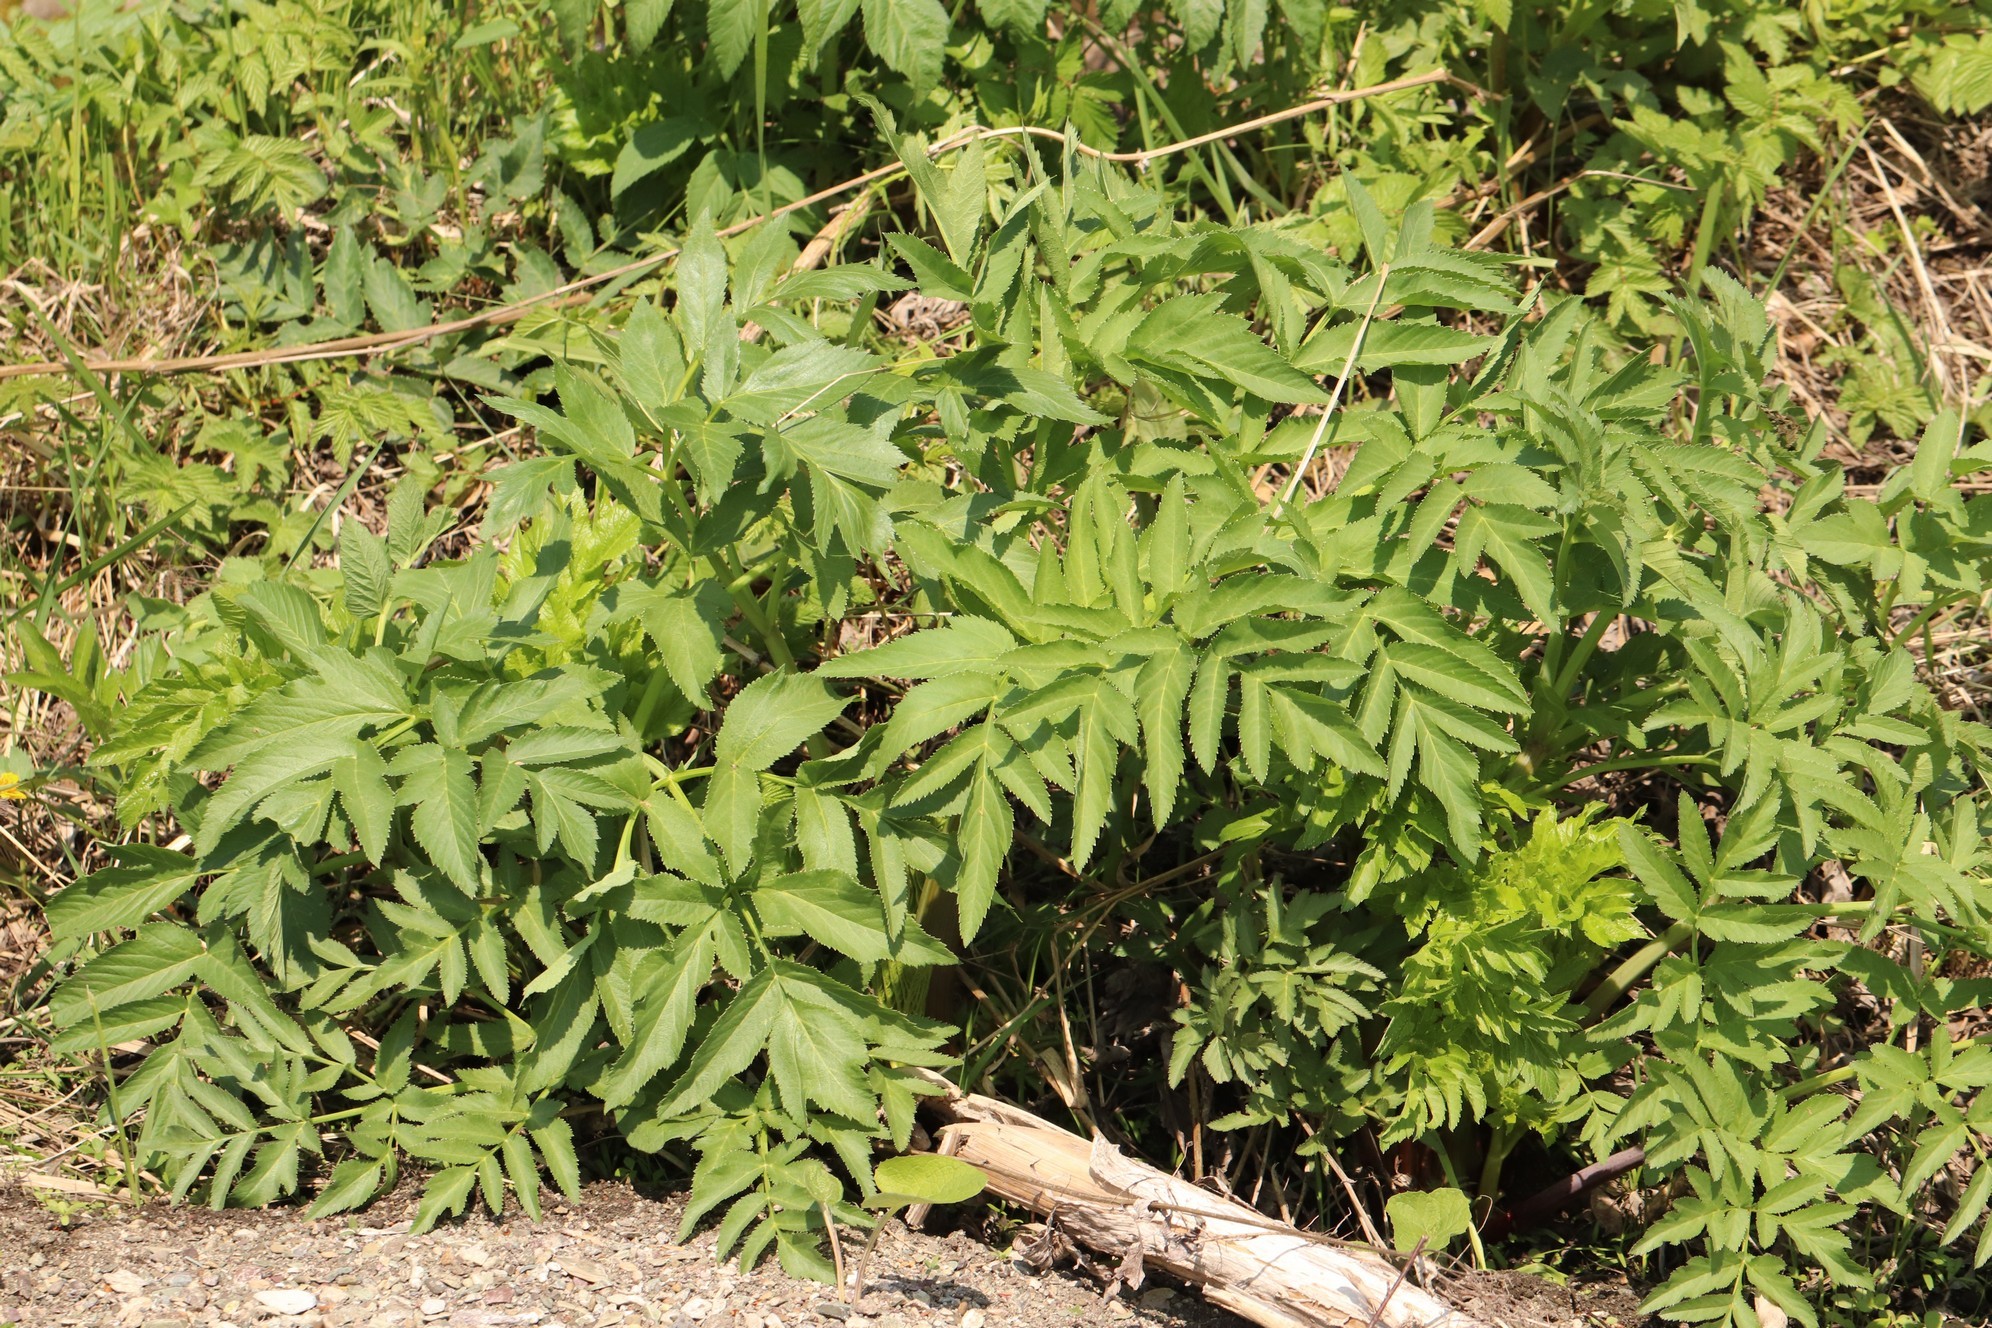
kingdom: Plantae
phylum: Tracheophyta
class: Magnoliopsida
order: Apiales
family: Apiaceae
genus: Angelica
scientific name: Angelica decurrens
